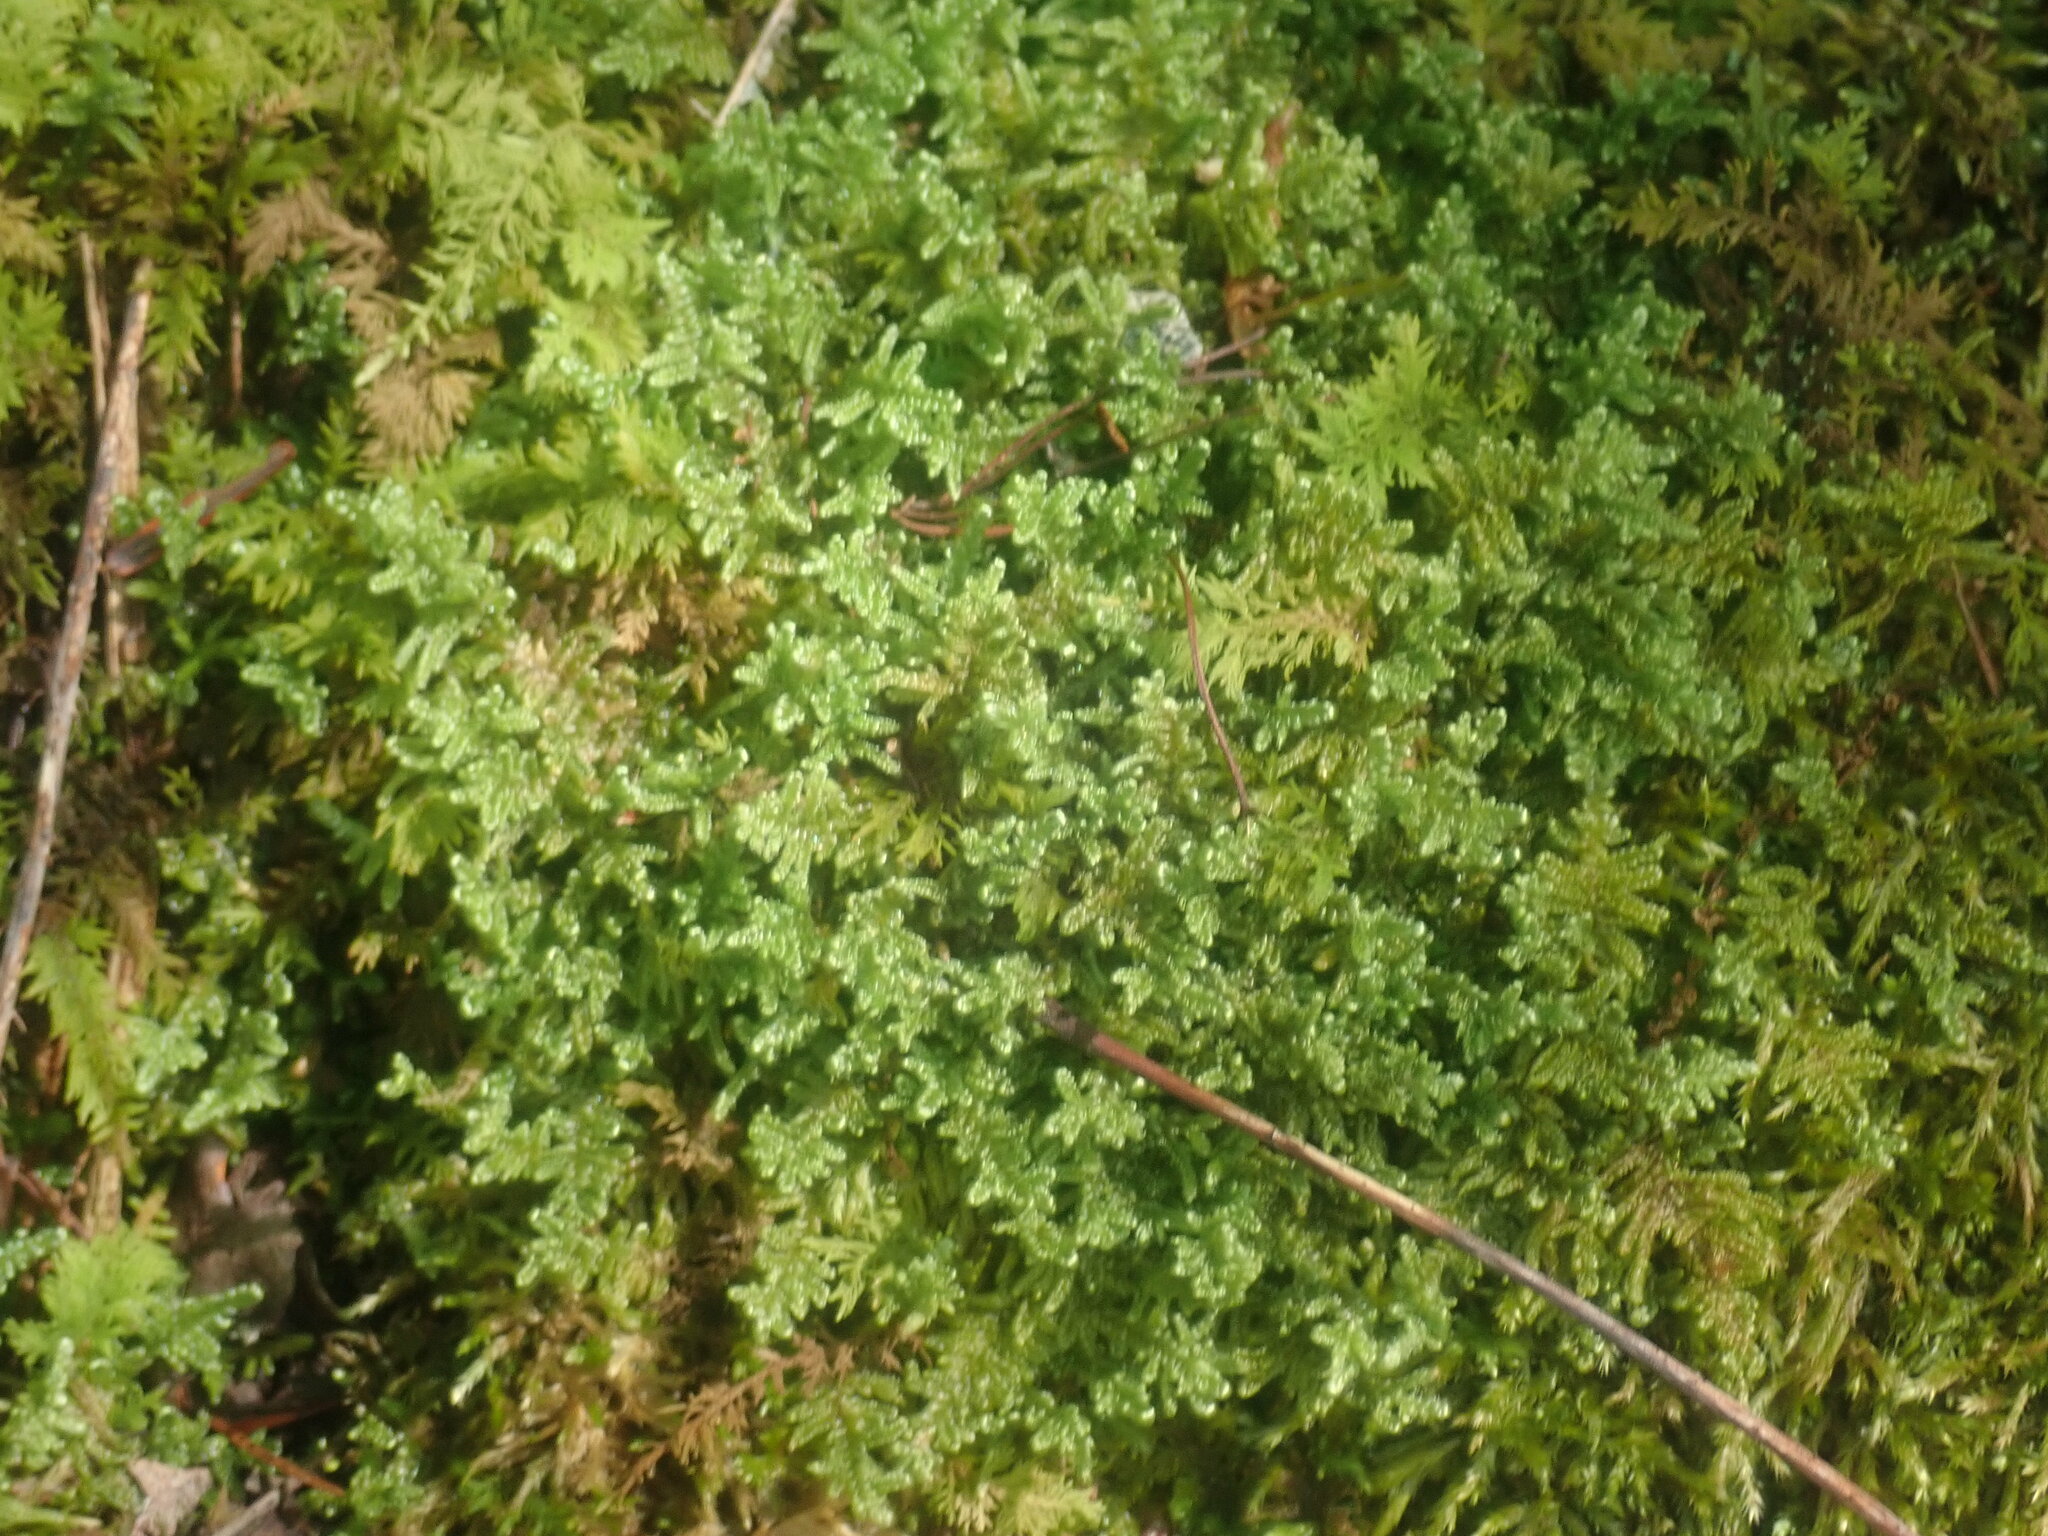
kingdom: Plantae
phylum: Bryophyta
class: Bryopsida
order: Hypnales
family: Callicladiaceae
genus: Callicladium
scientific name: Callicladium imponens
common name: Brocade moss
